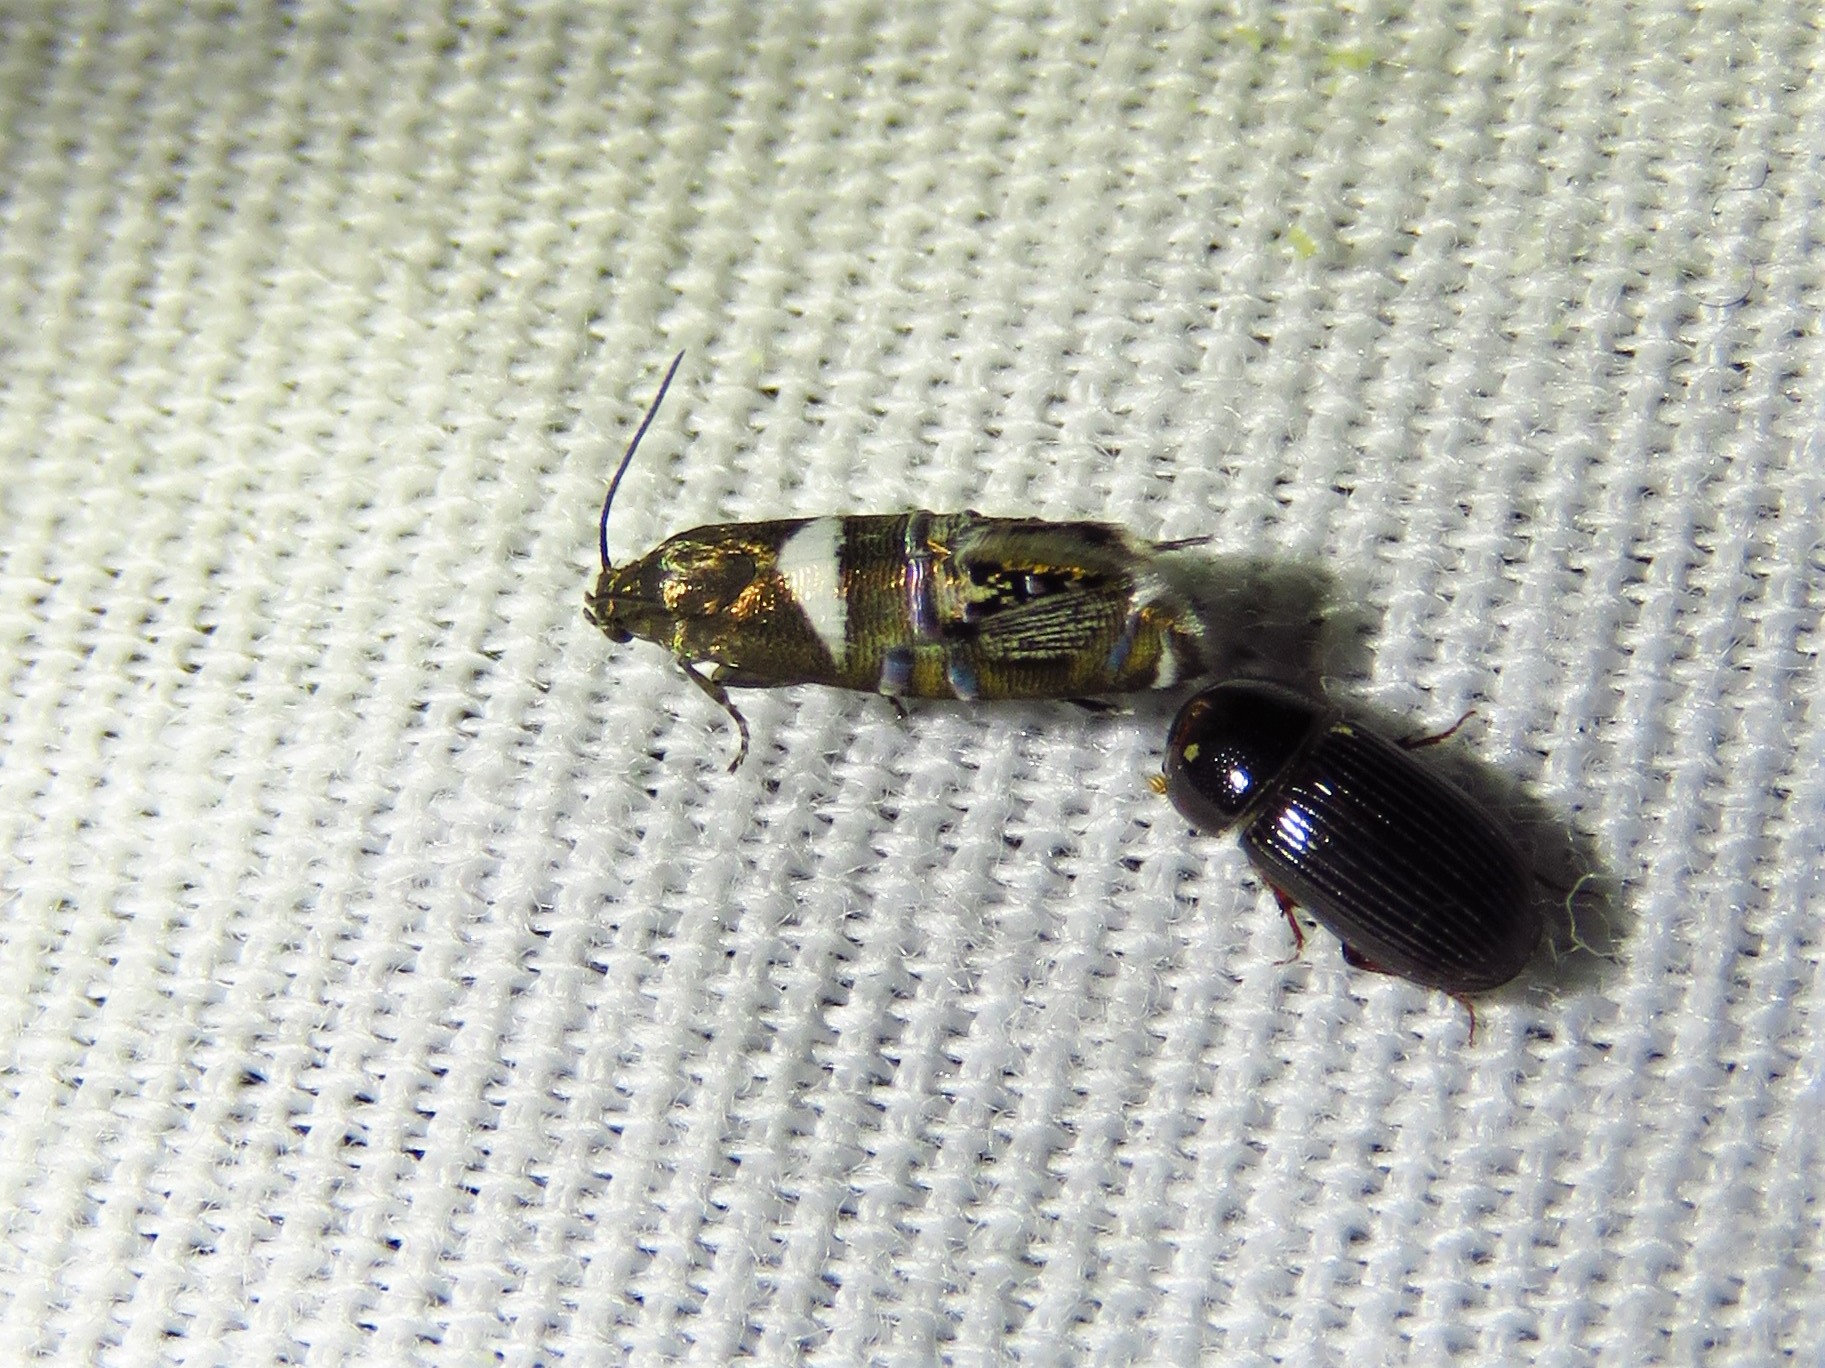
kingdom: Animalia
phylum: Arthropoda
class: Insecta
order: Lepidoptera
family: Glyphipterigidae
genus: Glyphipterix
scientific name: Glyphipterix circumscriptella
